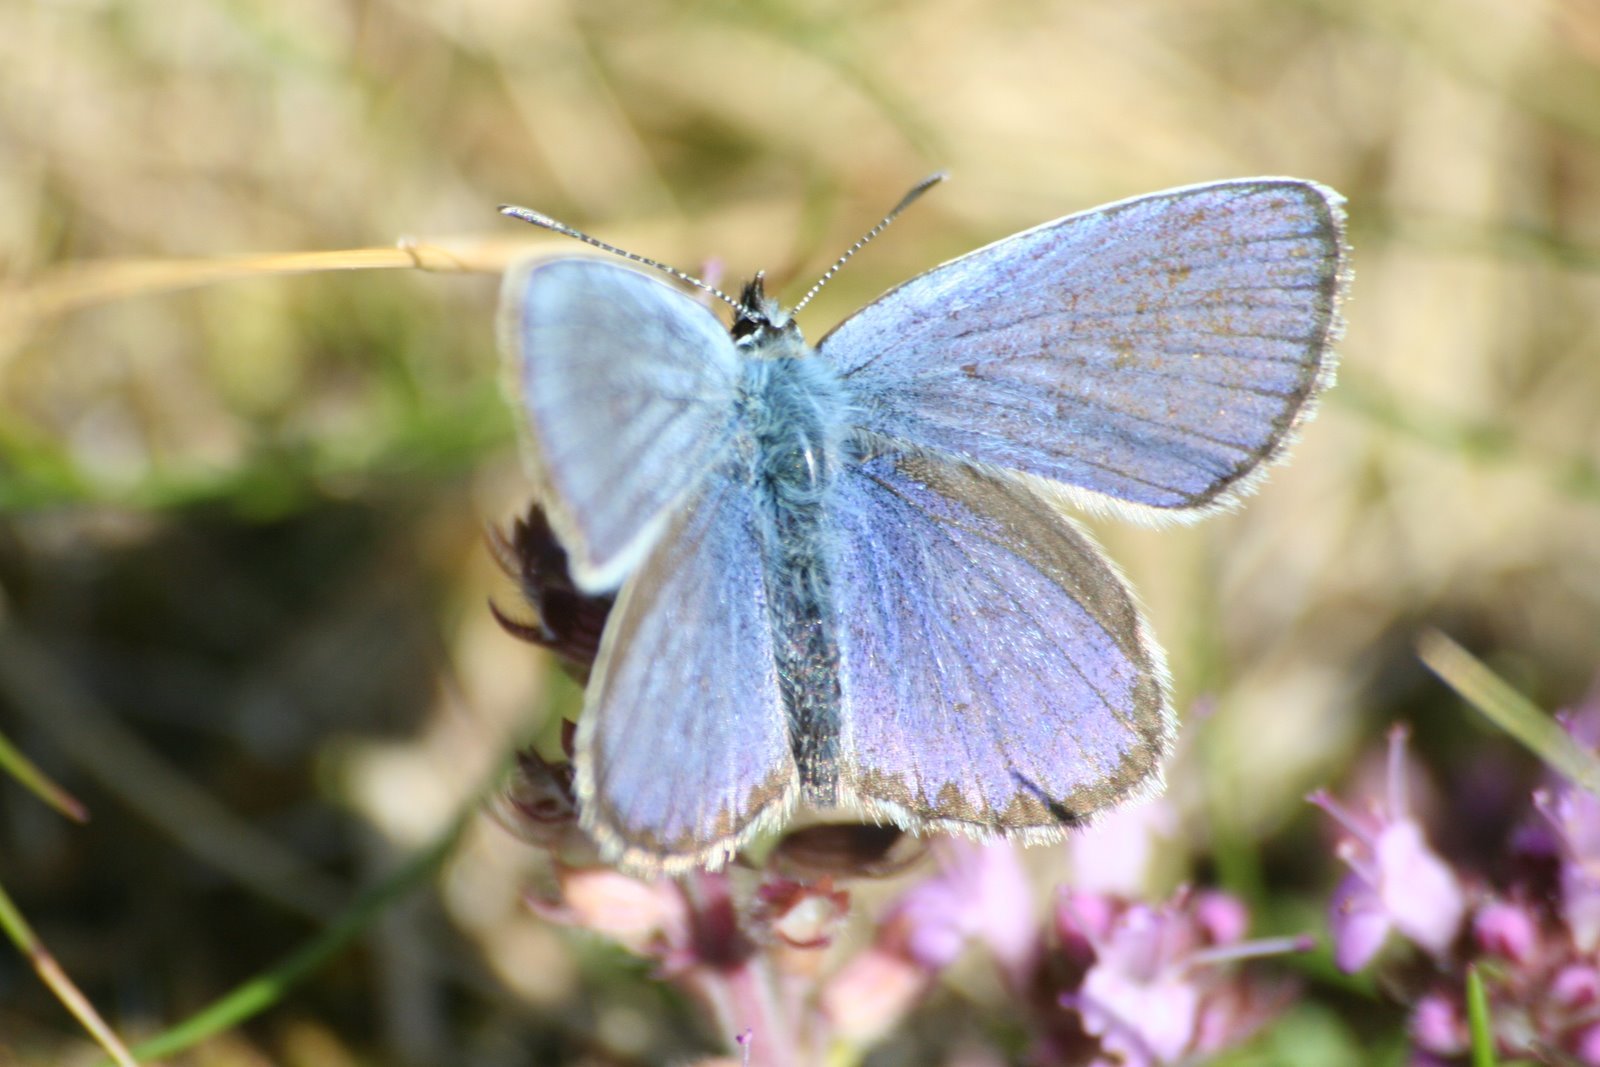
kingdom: Animalia
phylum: Arthropoda
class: Insecta
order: Lepidoptera
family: Lycaenidae
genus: Lycaeides
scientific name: Lycaeides idas
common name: Northern blue
